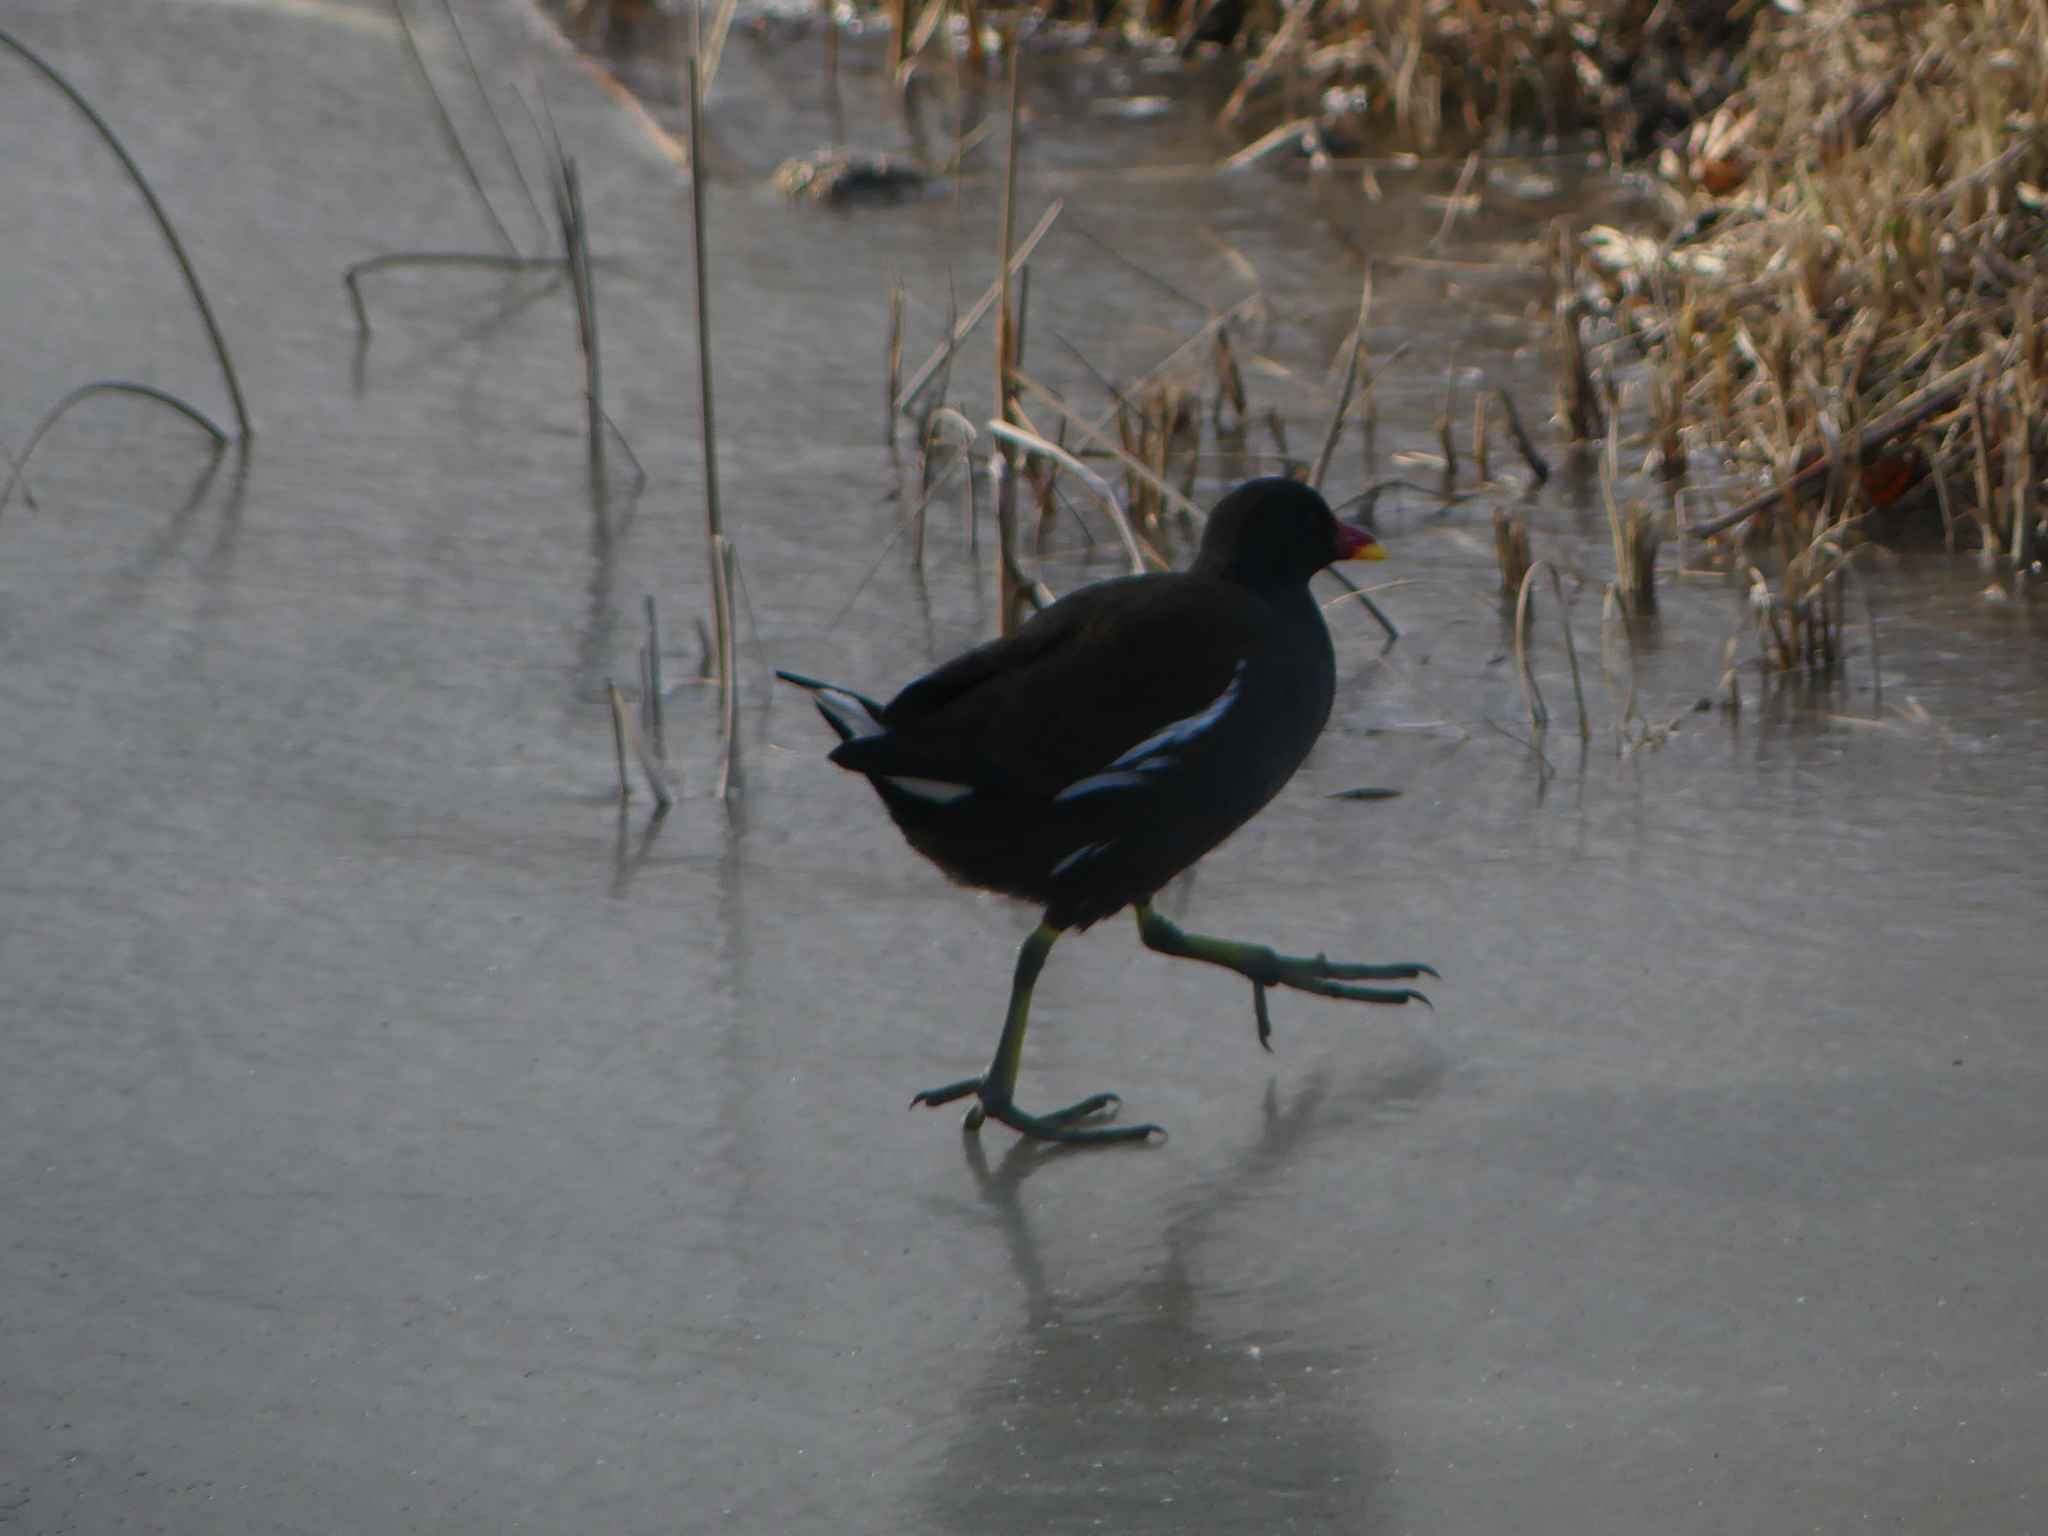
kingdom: Animalia
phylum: Chordata
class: Aves
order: Gruiformes
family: Rallidae
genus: Gallinula
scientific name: Gallinula chloropus
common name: Common moorhen
